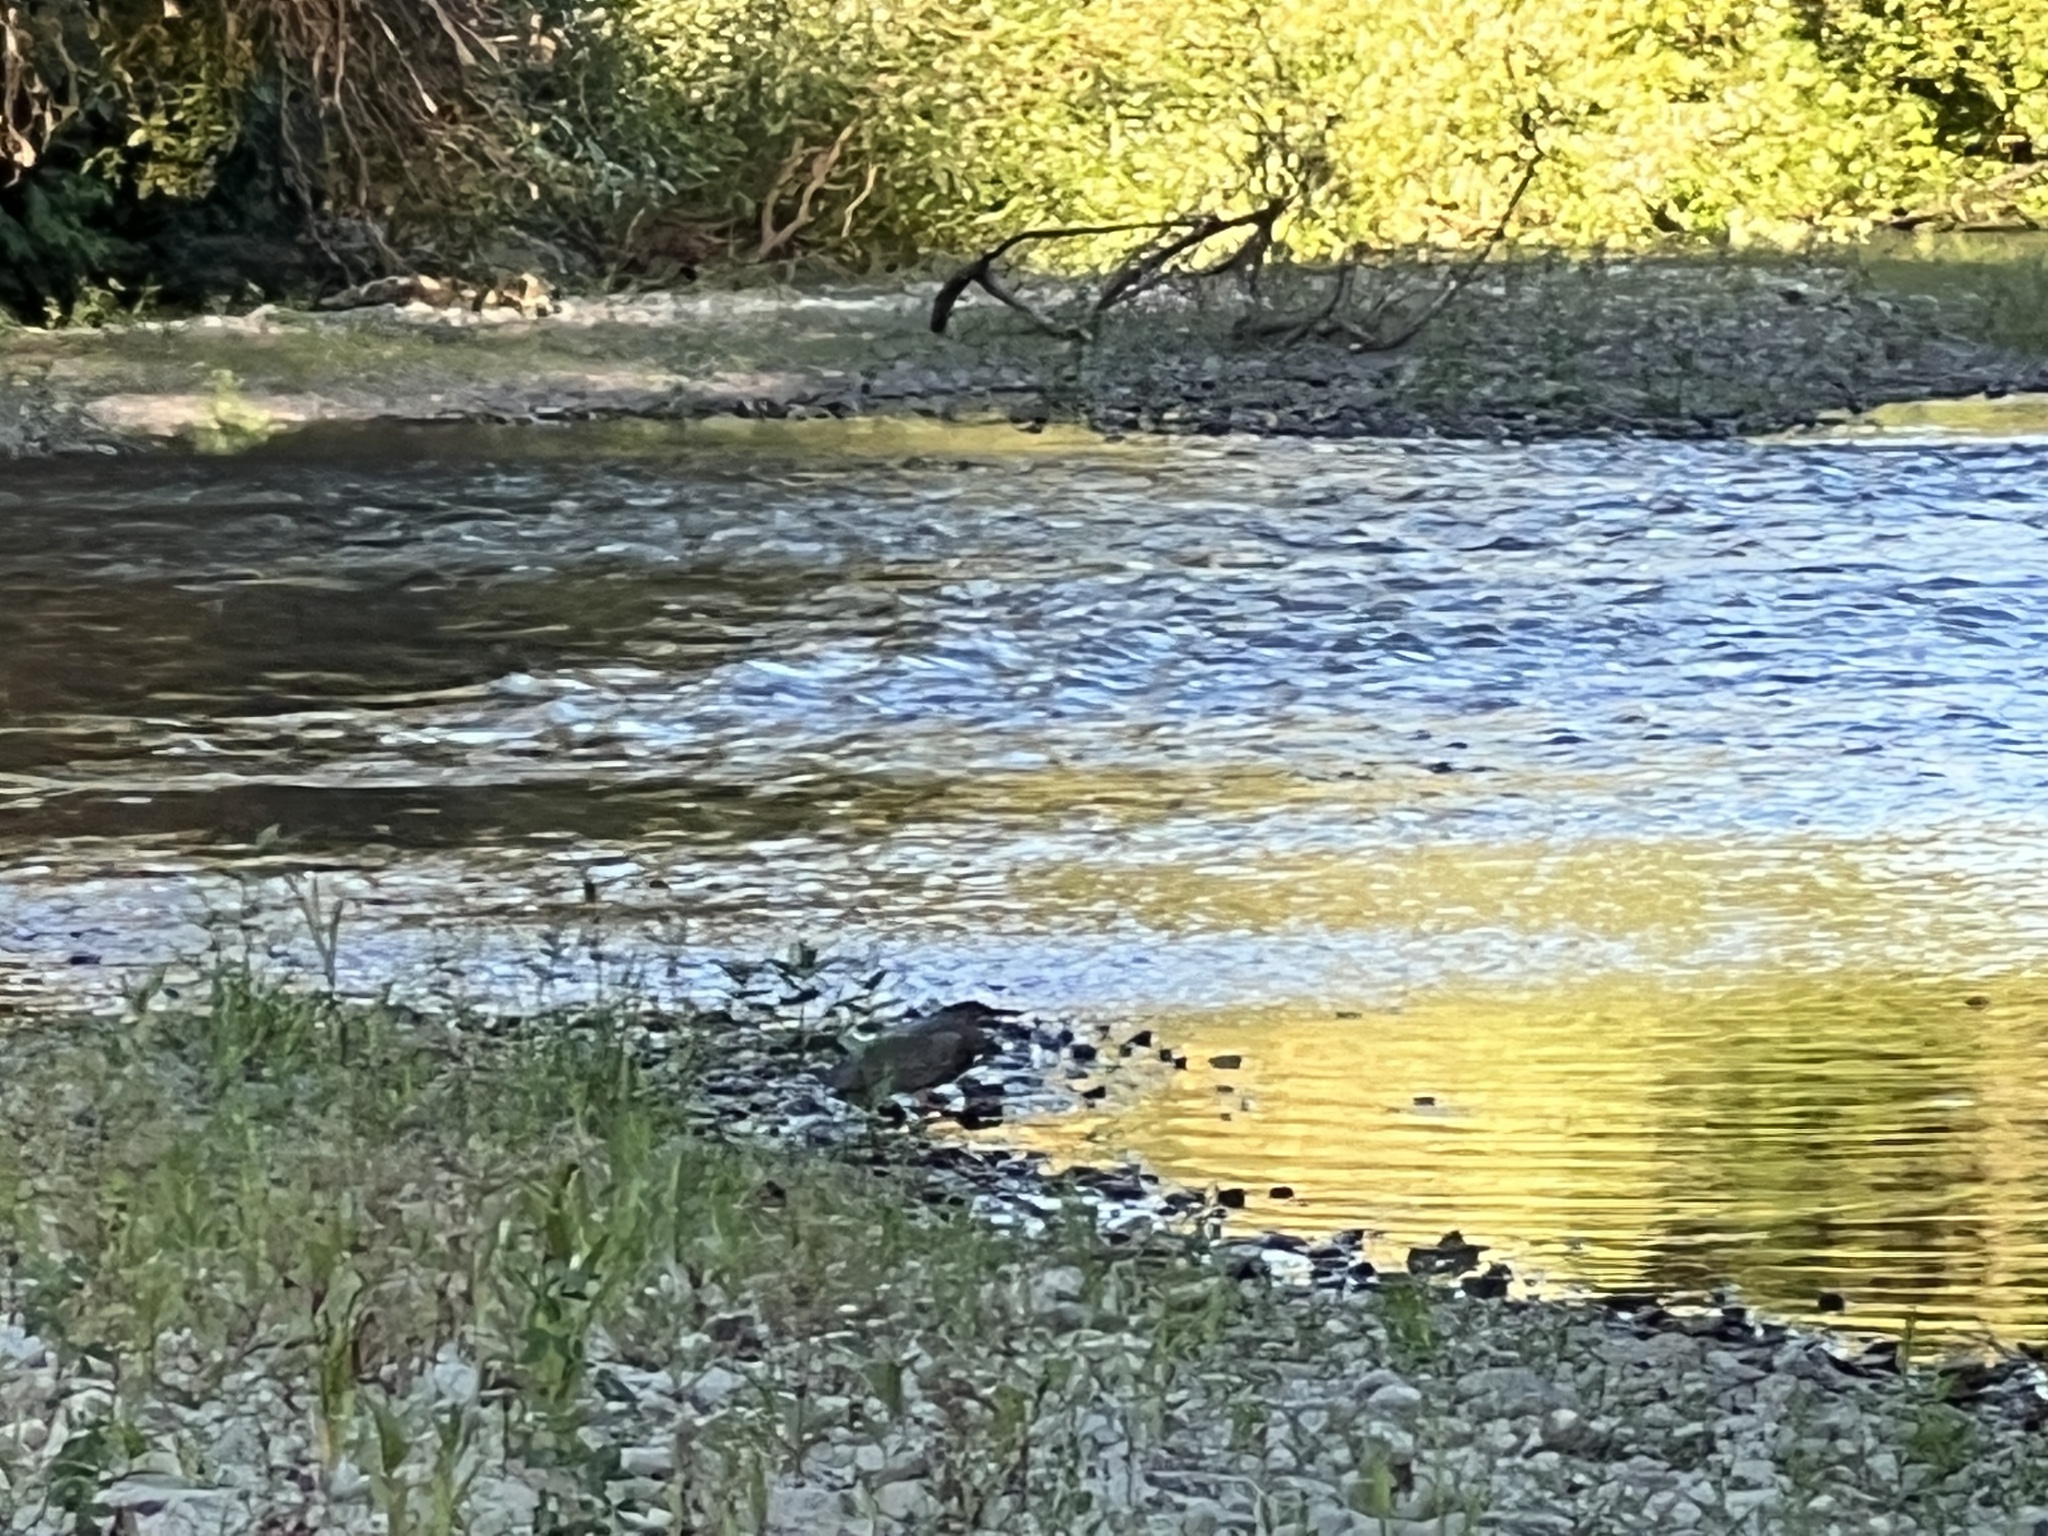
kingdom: Animalia
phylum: Chordata
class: Aves
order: Pelecaniformes
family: Ardeidae
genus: Butorides
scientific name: Butorides virescens
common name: Green heron
